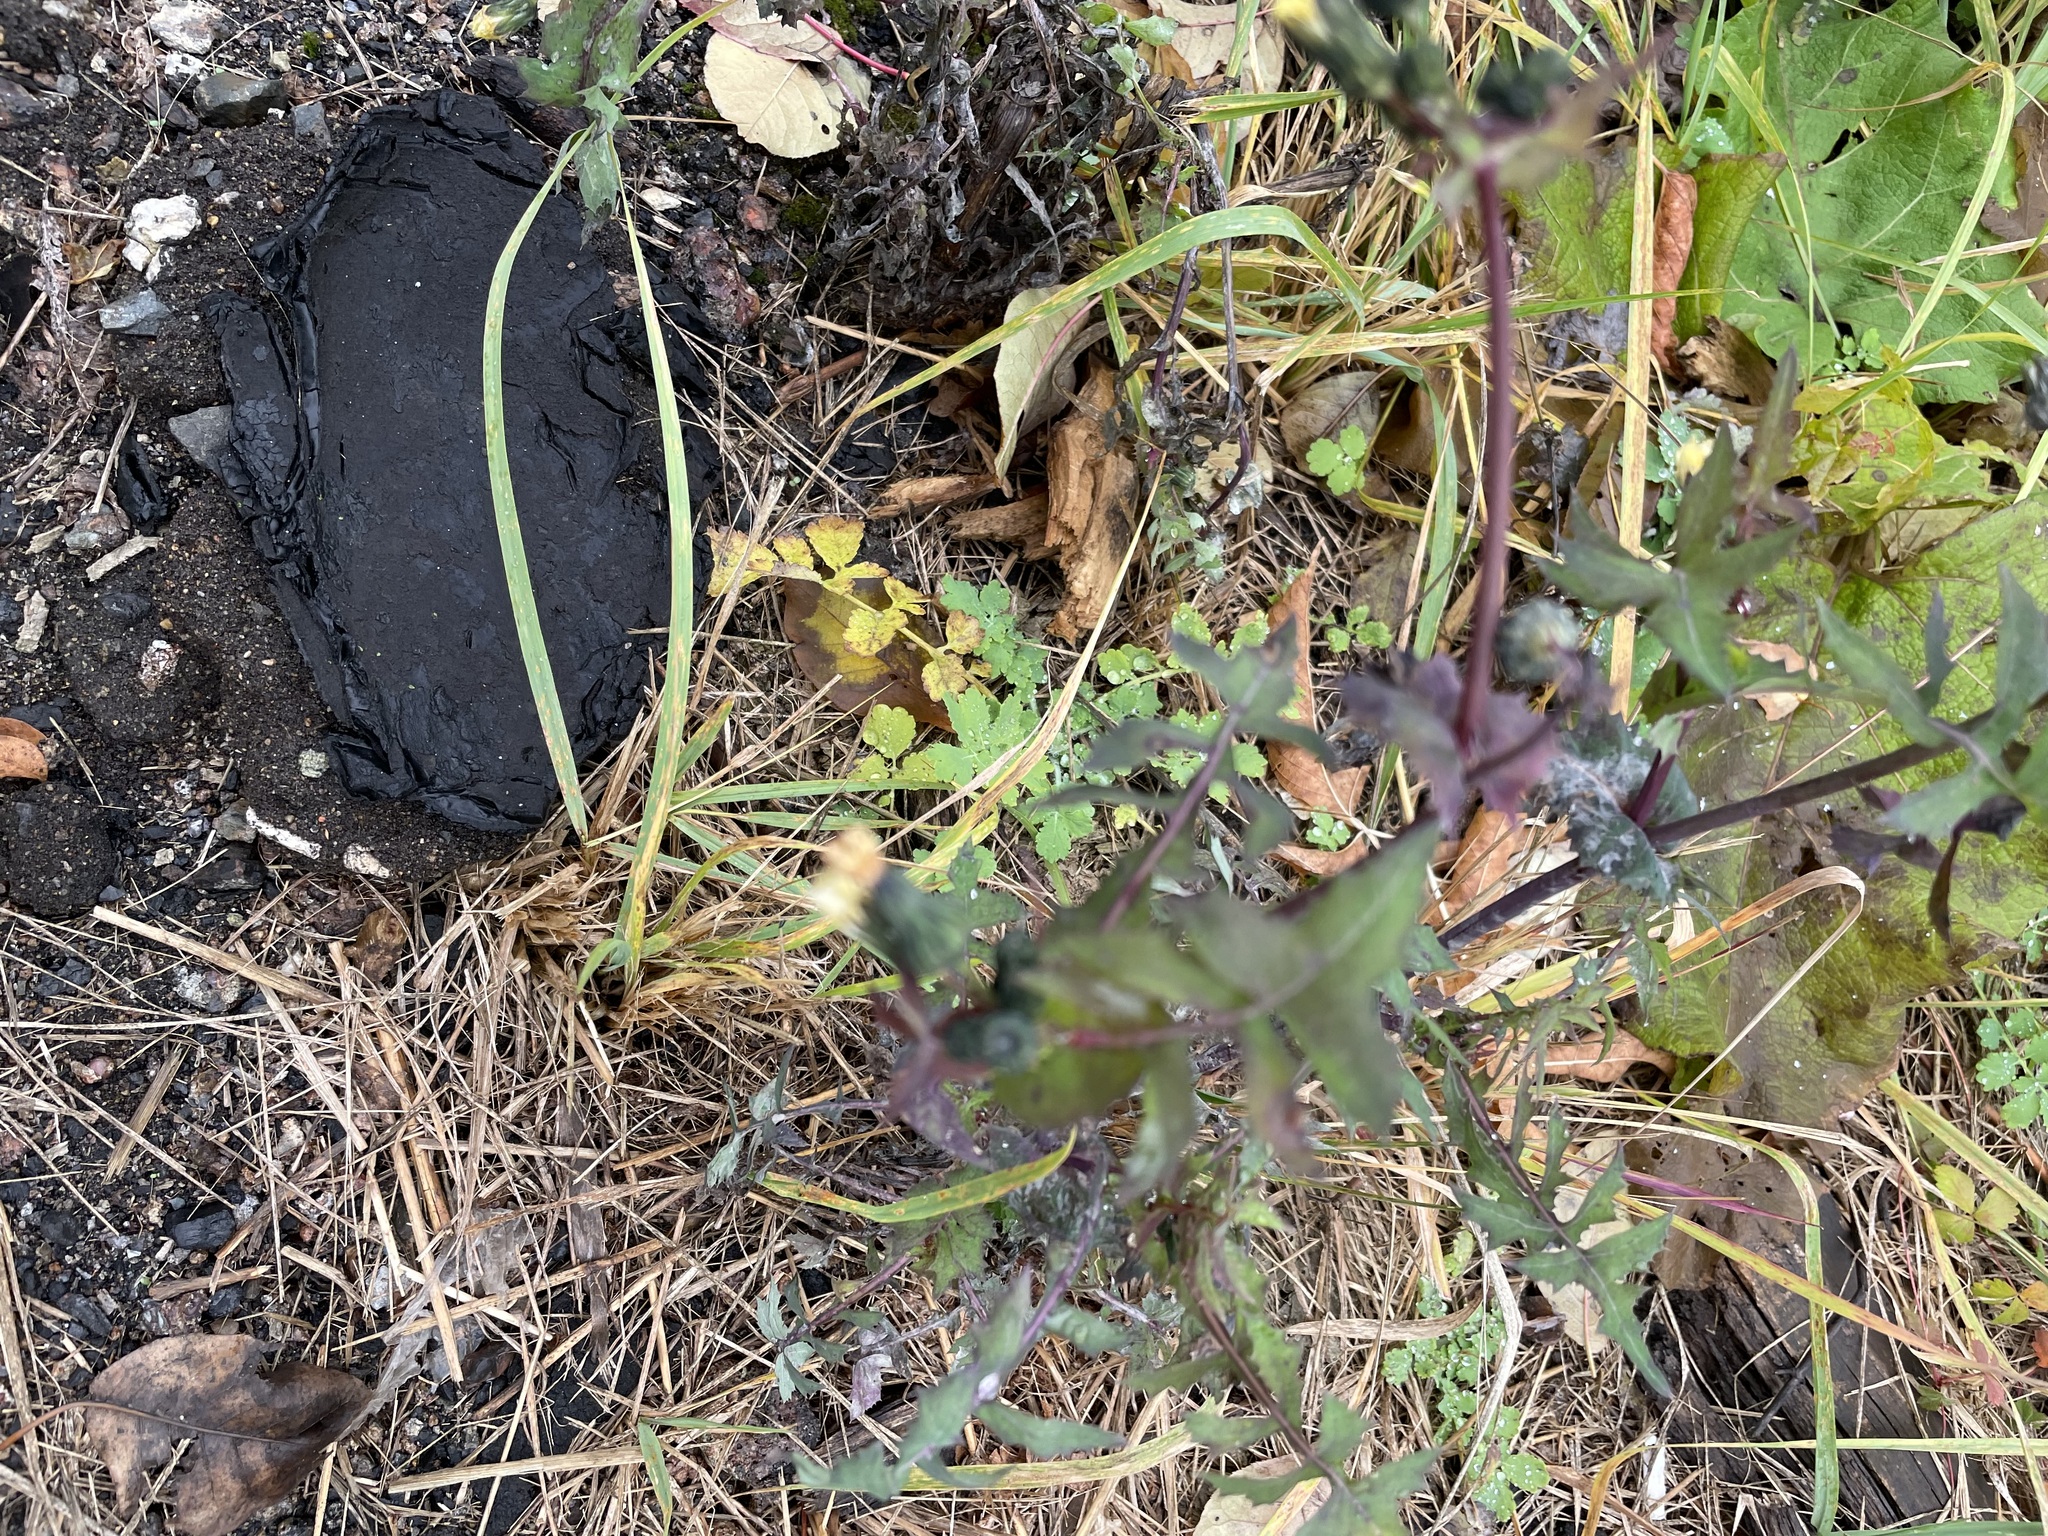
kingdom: Plantae
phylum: Tracheophyta
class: Magnoliopsida
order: Asterales
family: Asteraceae
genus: Sonchus
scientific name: Sonchus oleraceus
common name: Common sowthistle
